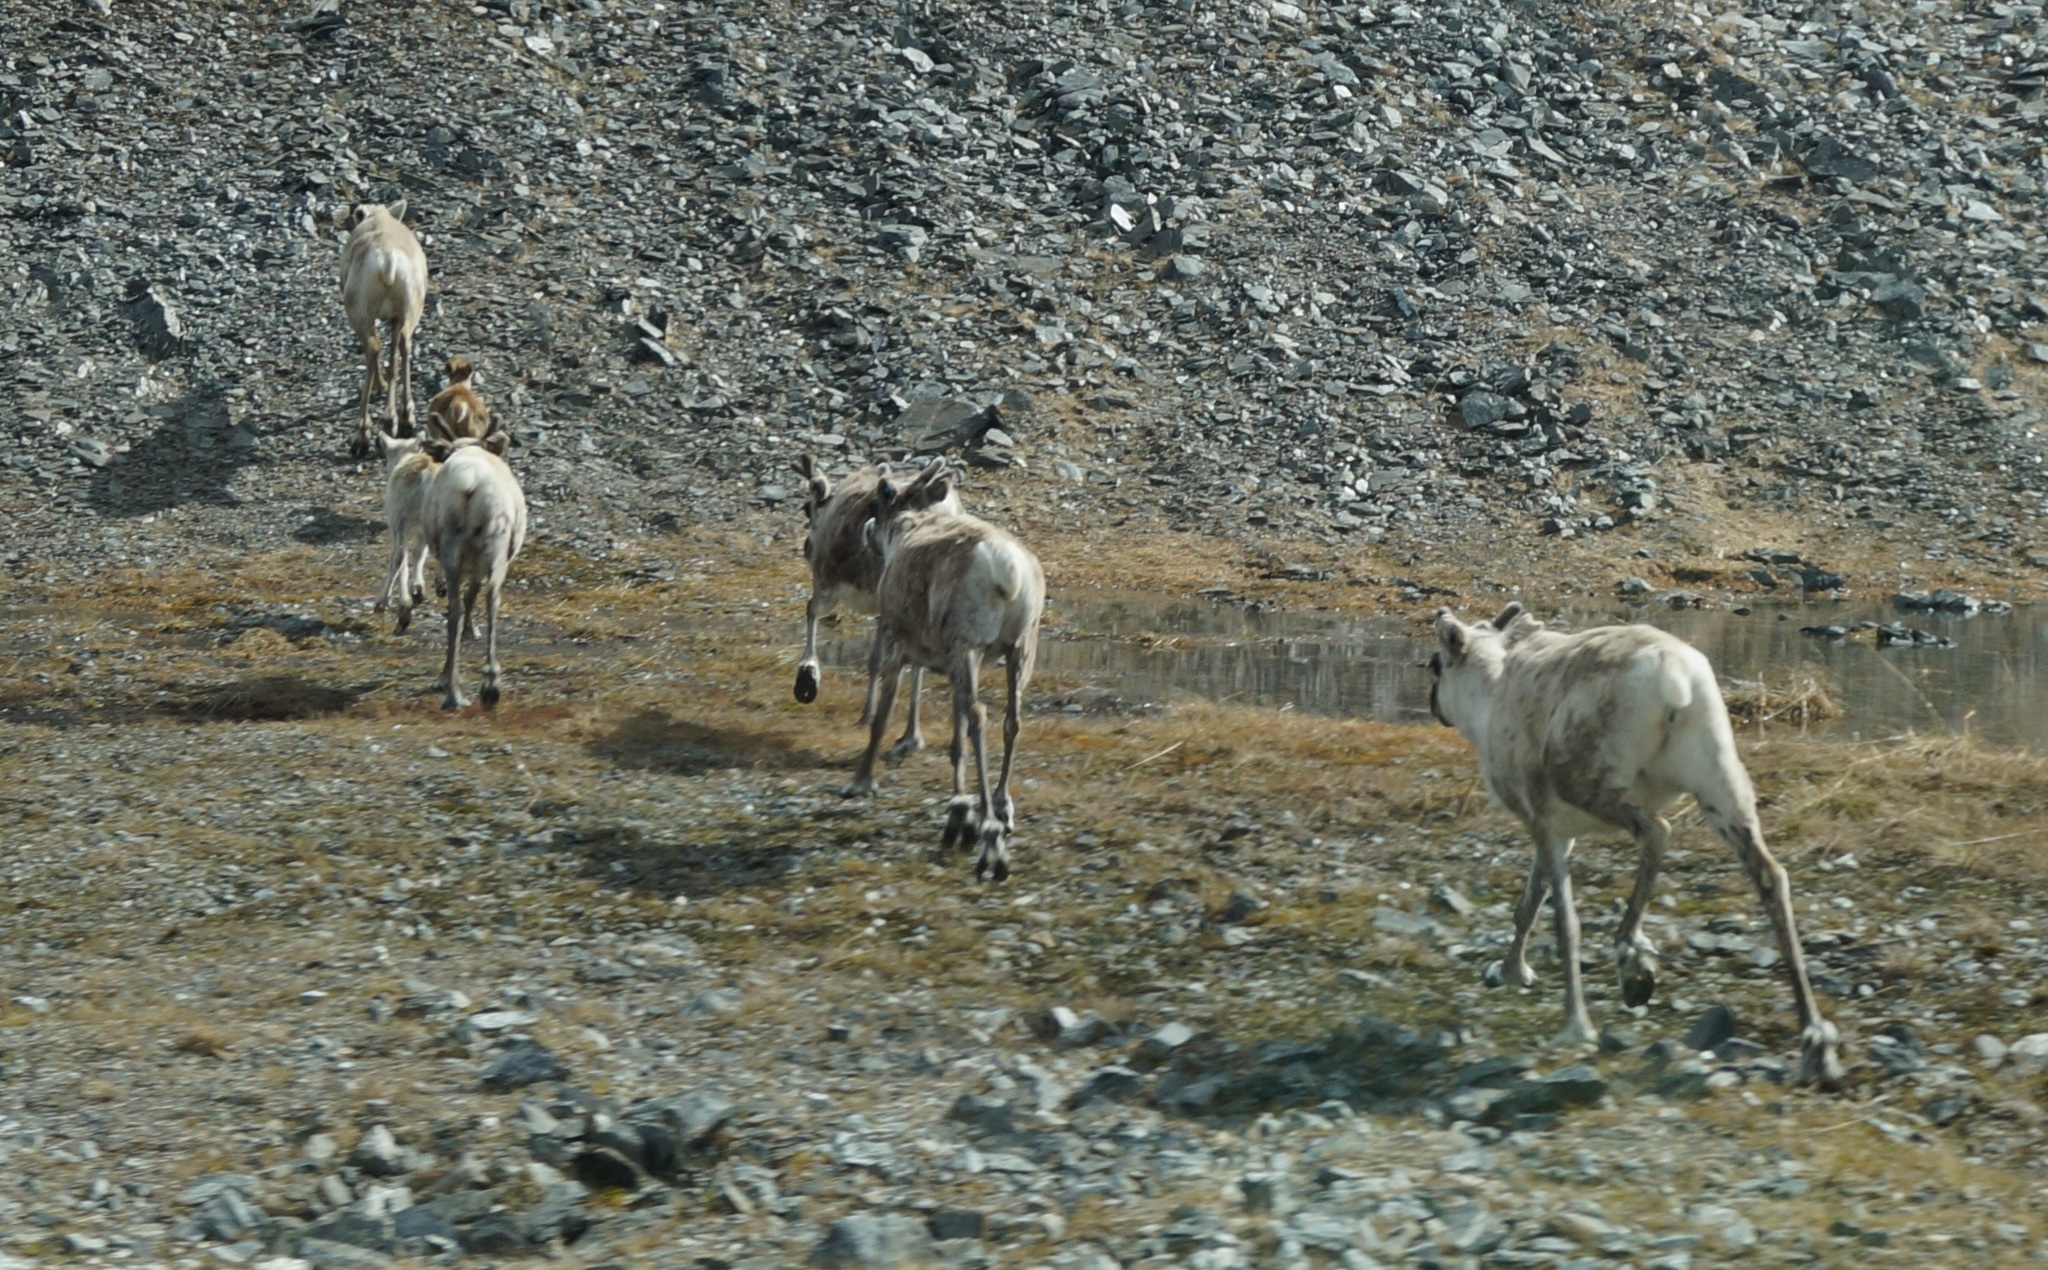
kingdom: Animalia
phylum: Chordata
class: Mammalia
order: Artiodactyla
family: Cervidae
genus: Rangifer
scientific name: Rangifer tarandus
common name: Reindeer
